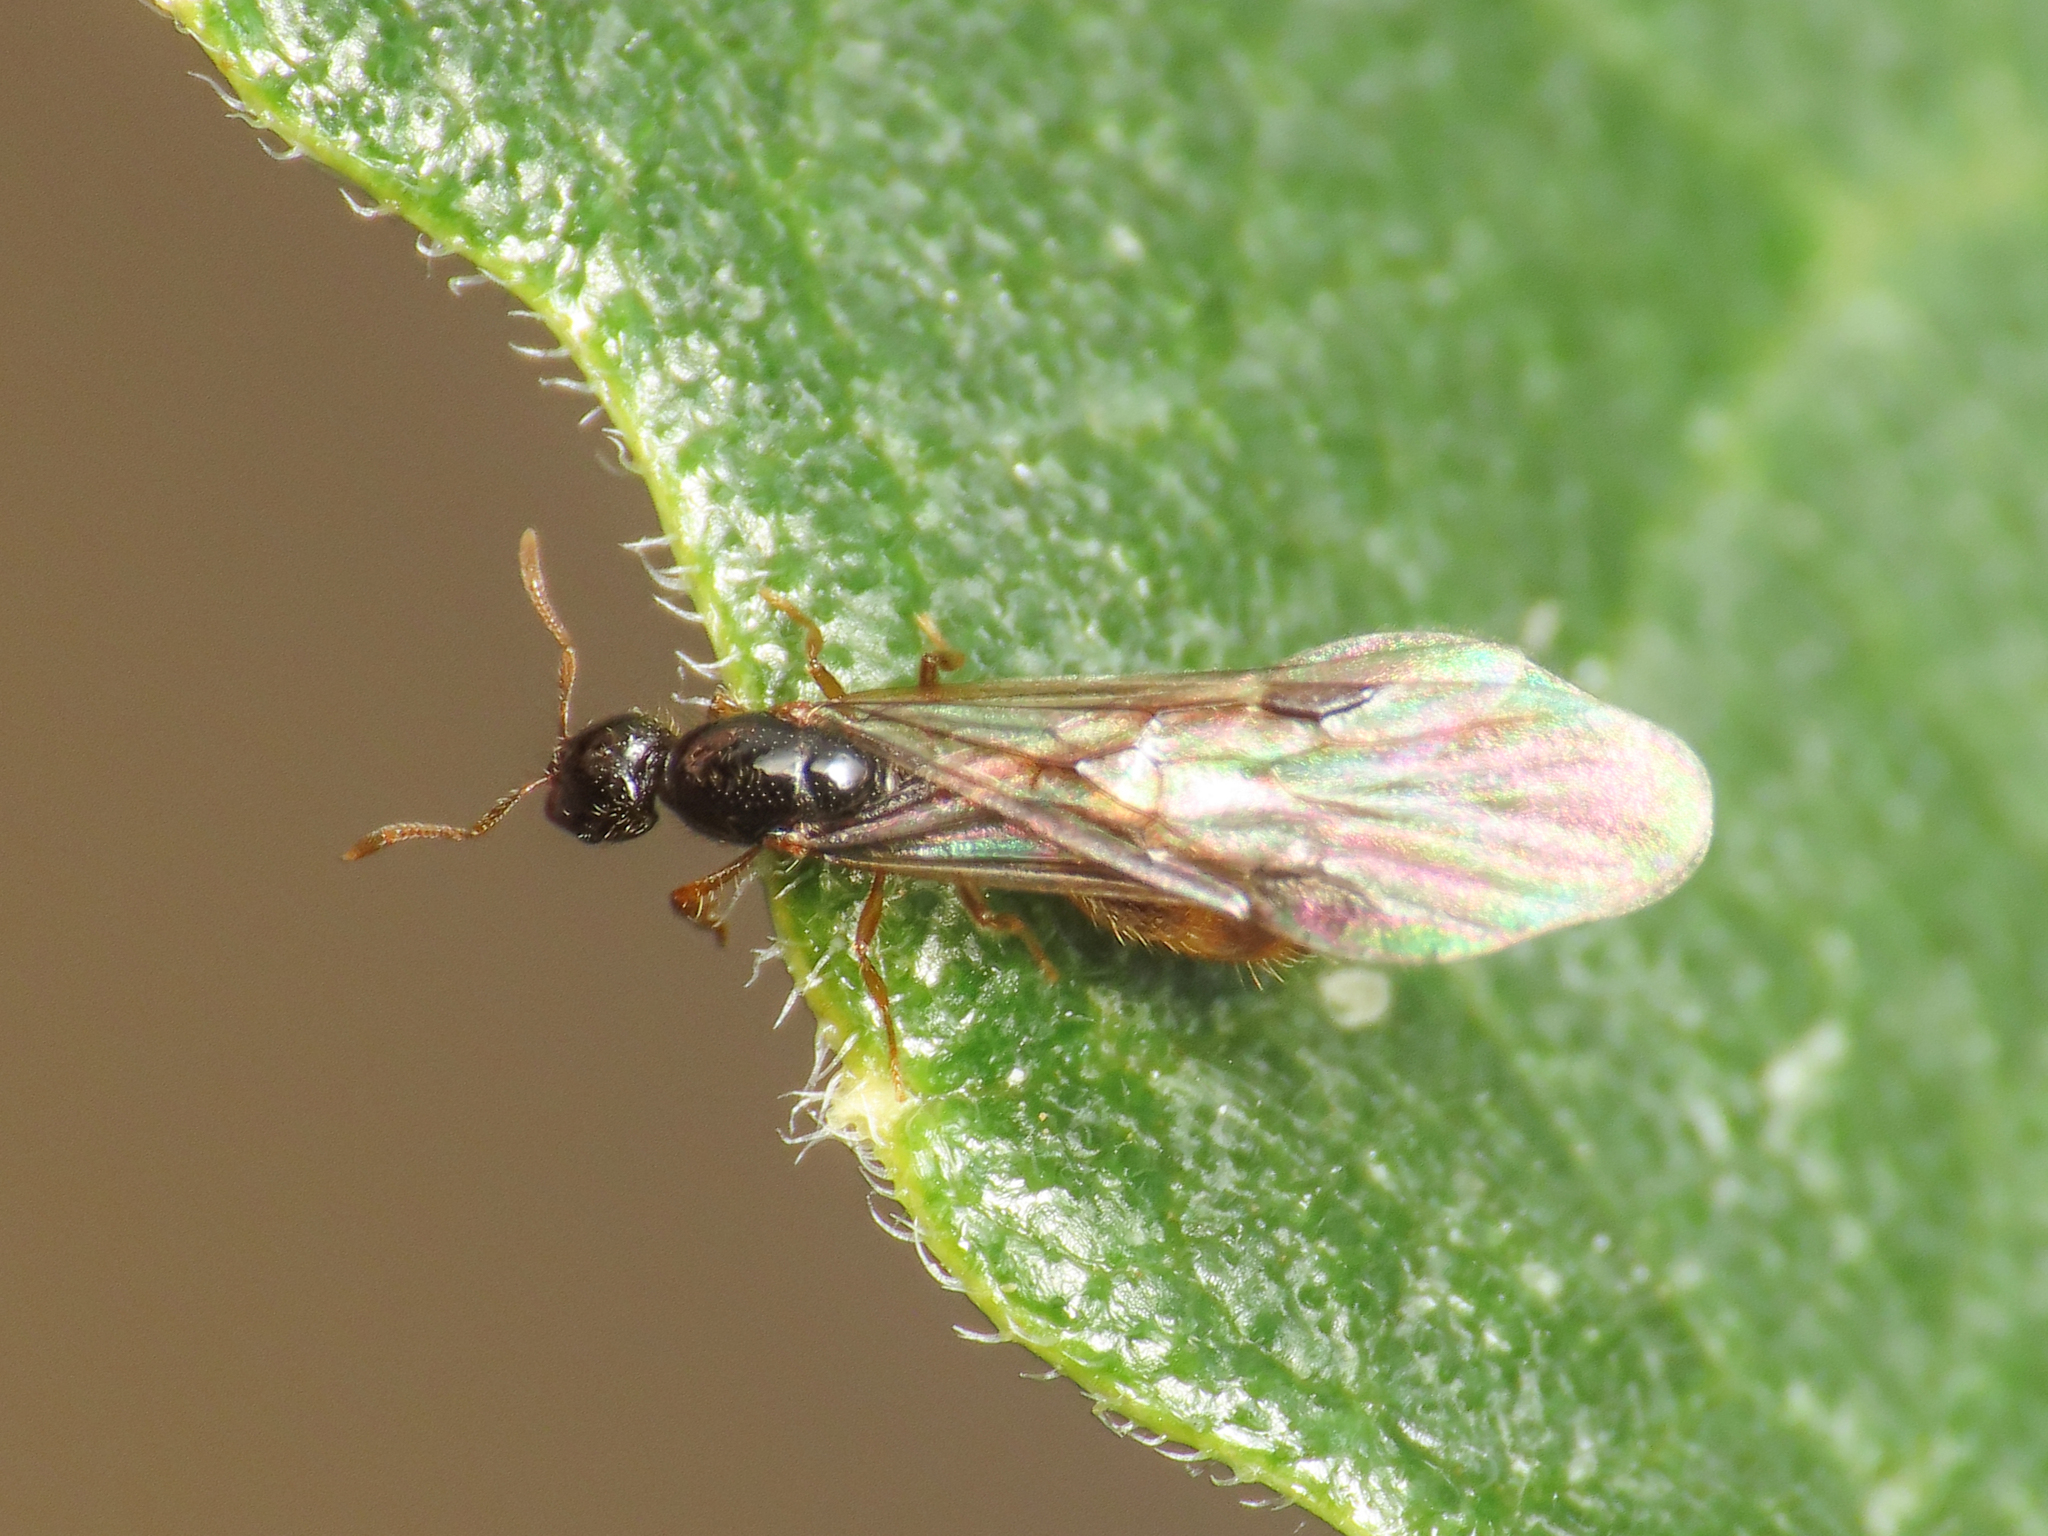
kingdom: Animalia
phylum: Arthropoda
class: Insecta
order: Hymenoptera
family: Formicidae
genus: Solenopsis
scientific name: Solenopsis fugax
